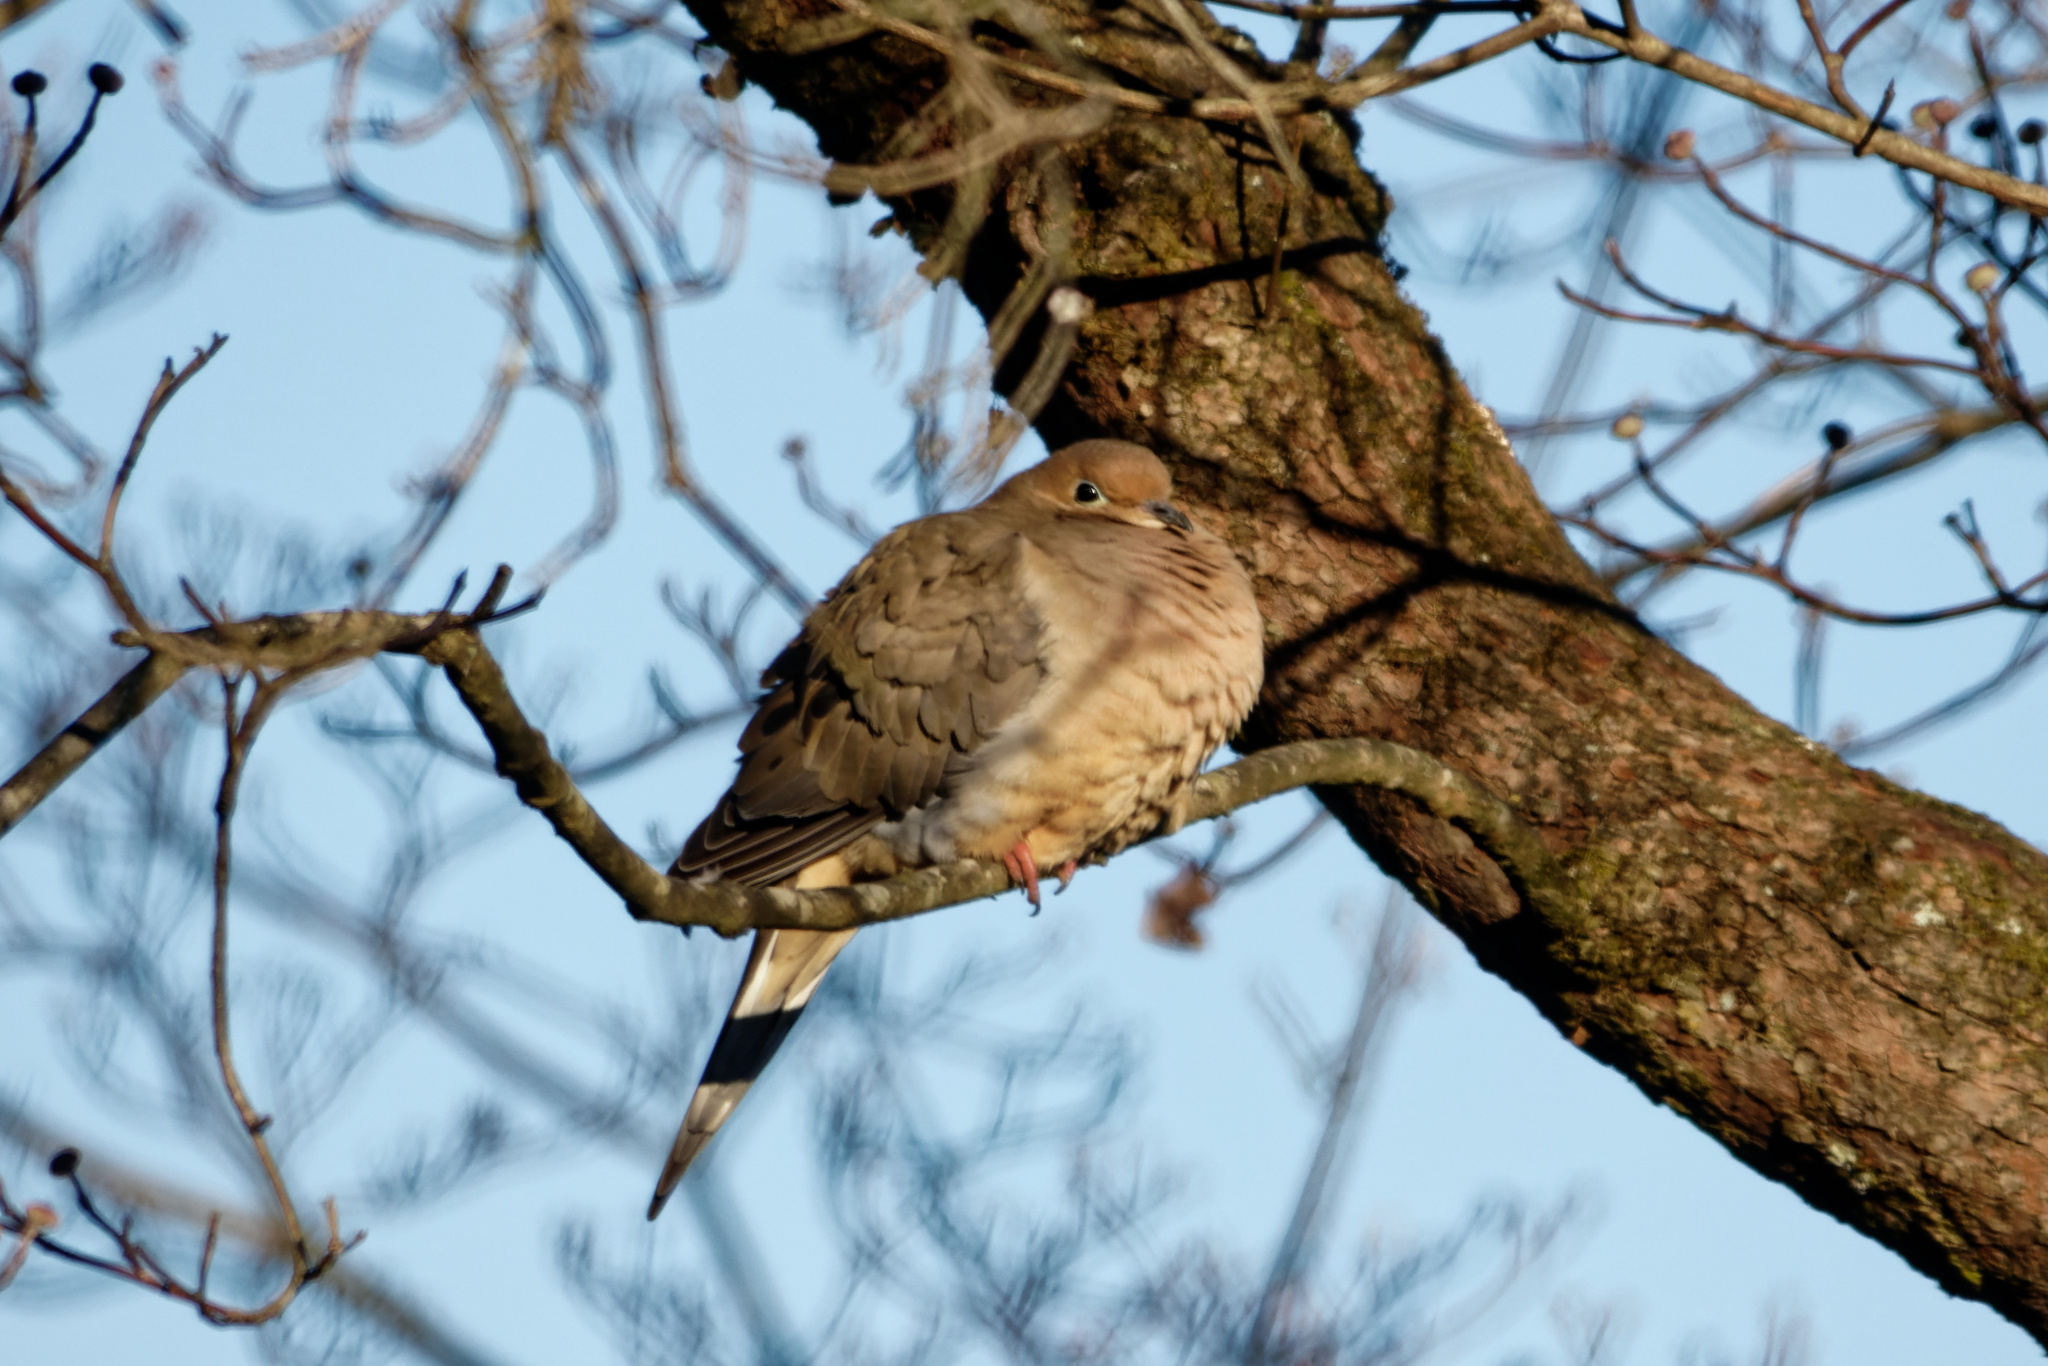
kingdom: Animalia
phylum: Chordata
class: Aves
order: Columbiformes
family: Columbidae
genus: Zenaida
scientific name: Zenaida macroura
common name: Mourning dove
